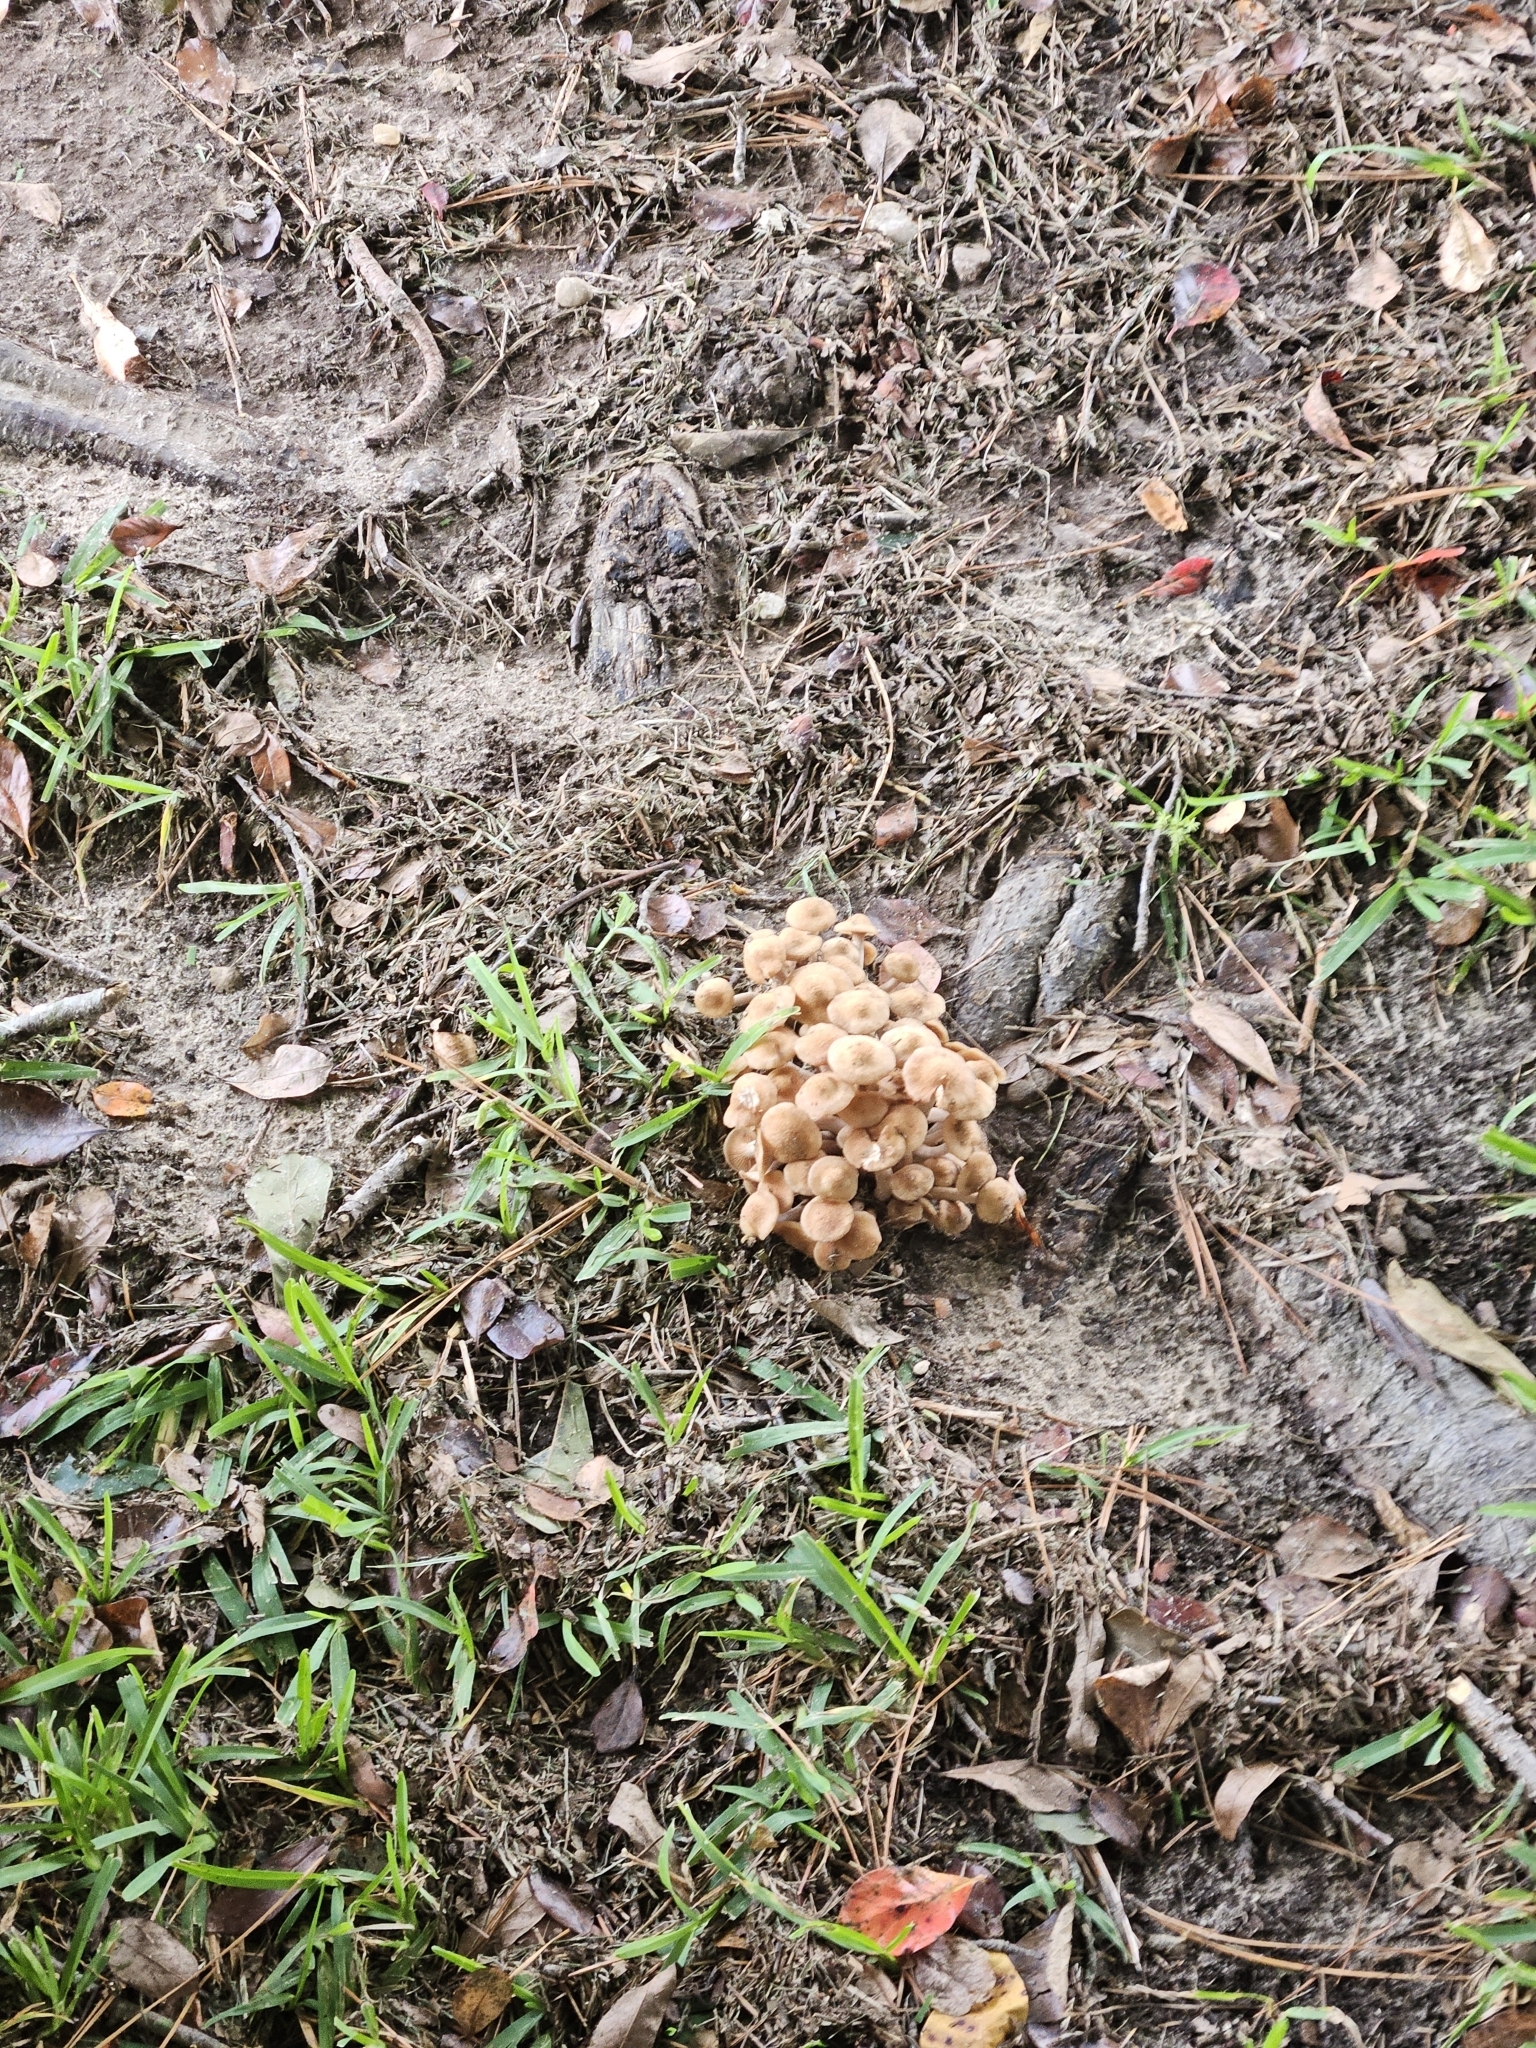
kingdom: Fungi
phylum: Basidiomycota
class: Agaricomycetes
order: Agaricales
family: Physalacriaceae
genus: Desarmillaria
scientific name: Desarmillaria caespitosa
